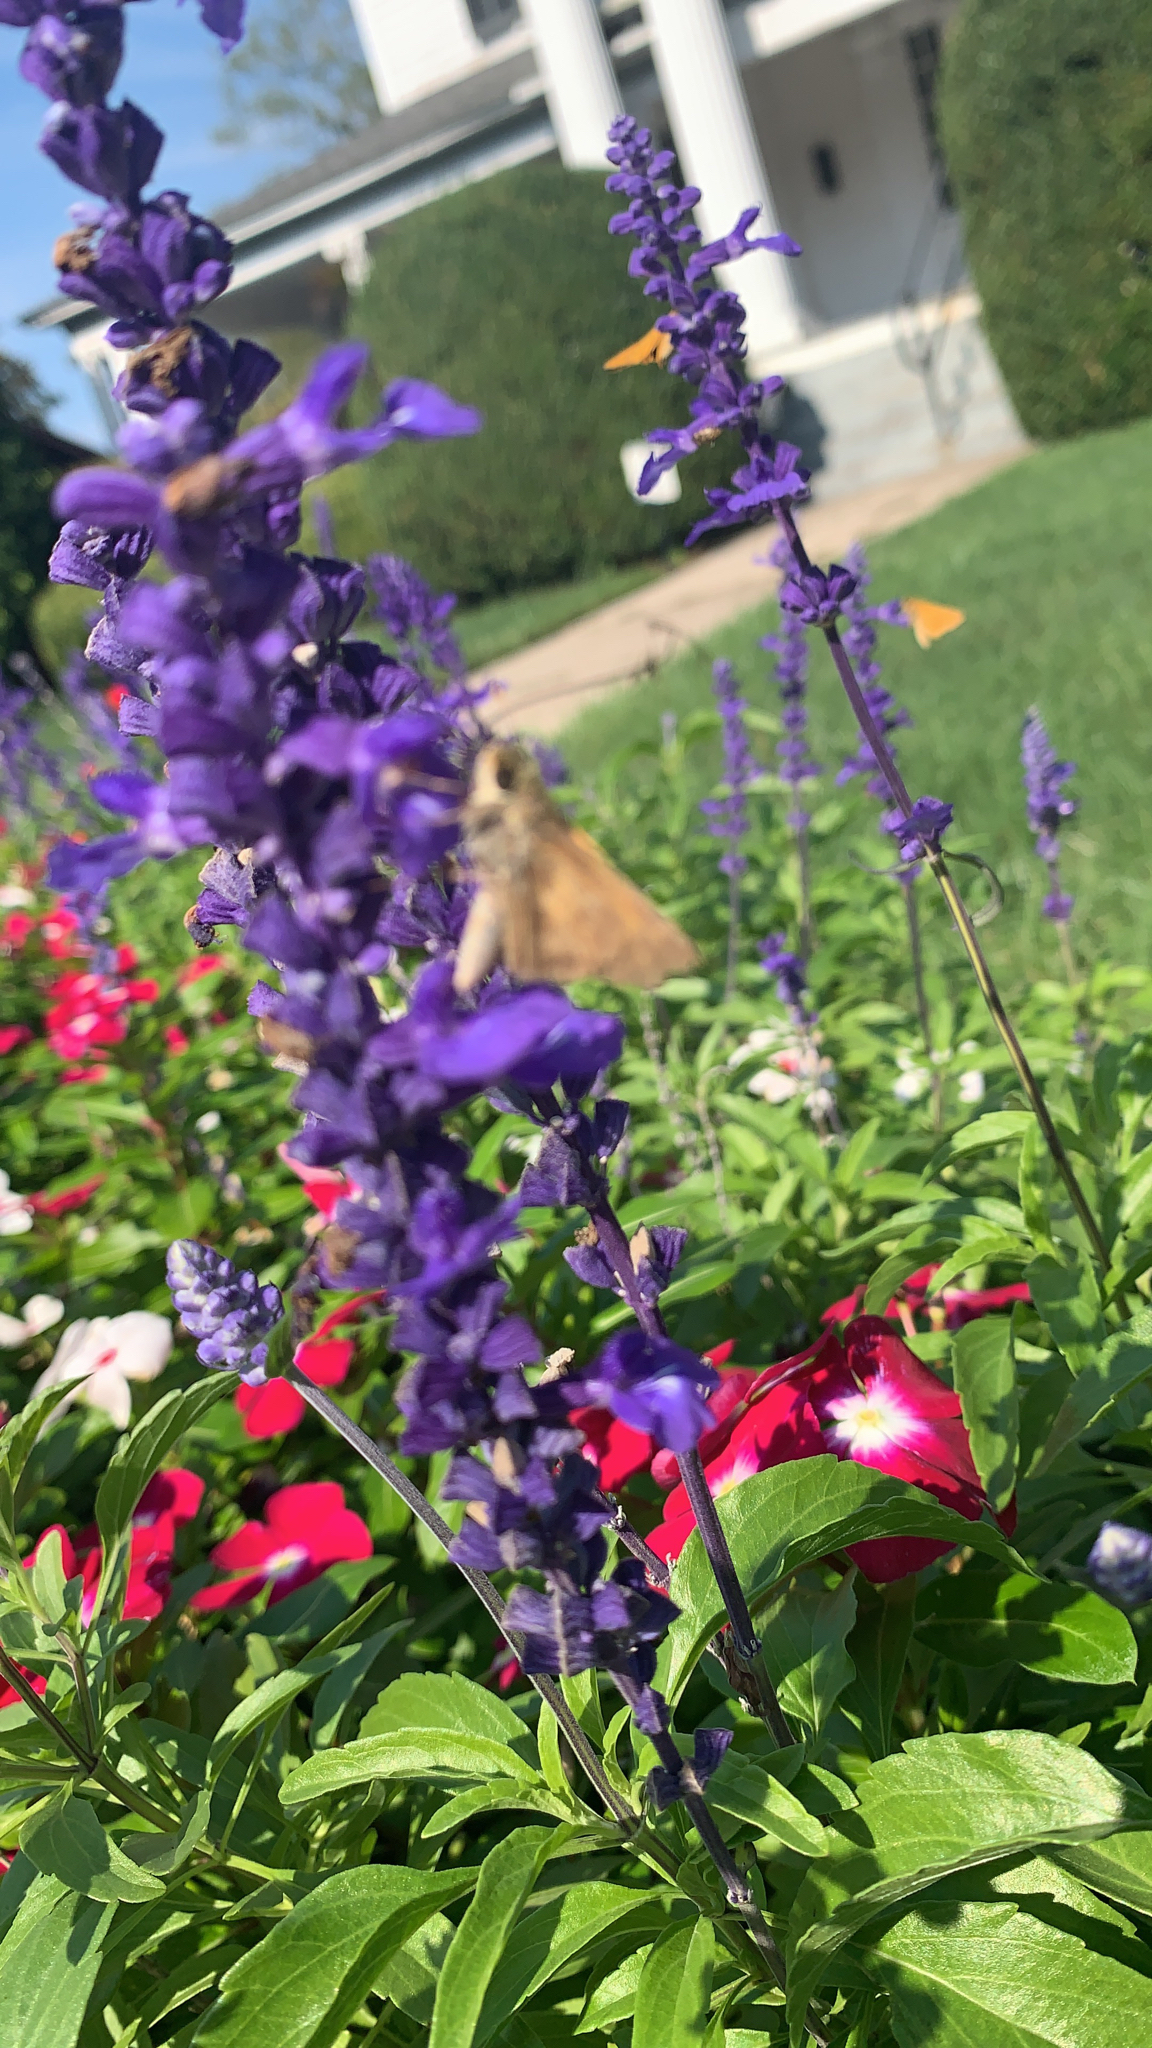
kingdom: Animalia
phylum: Arthropoda
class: Insecta
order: Lepidoptera
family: Hesperiidae
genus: Atalopedes
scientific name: Atalopedes
